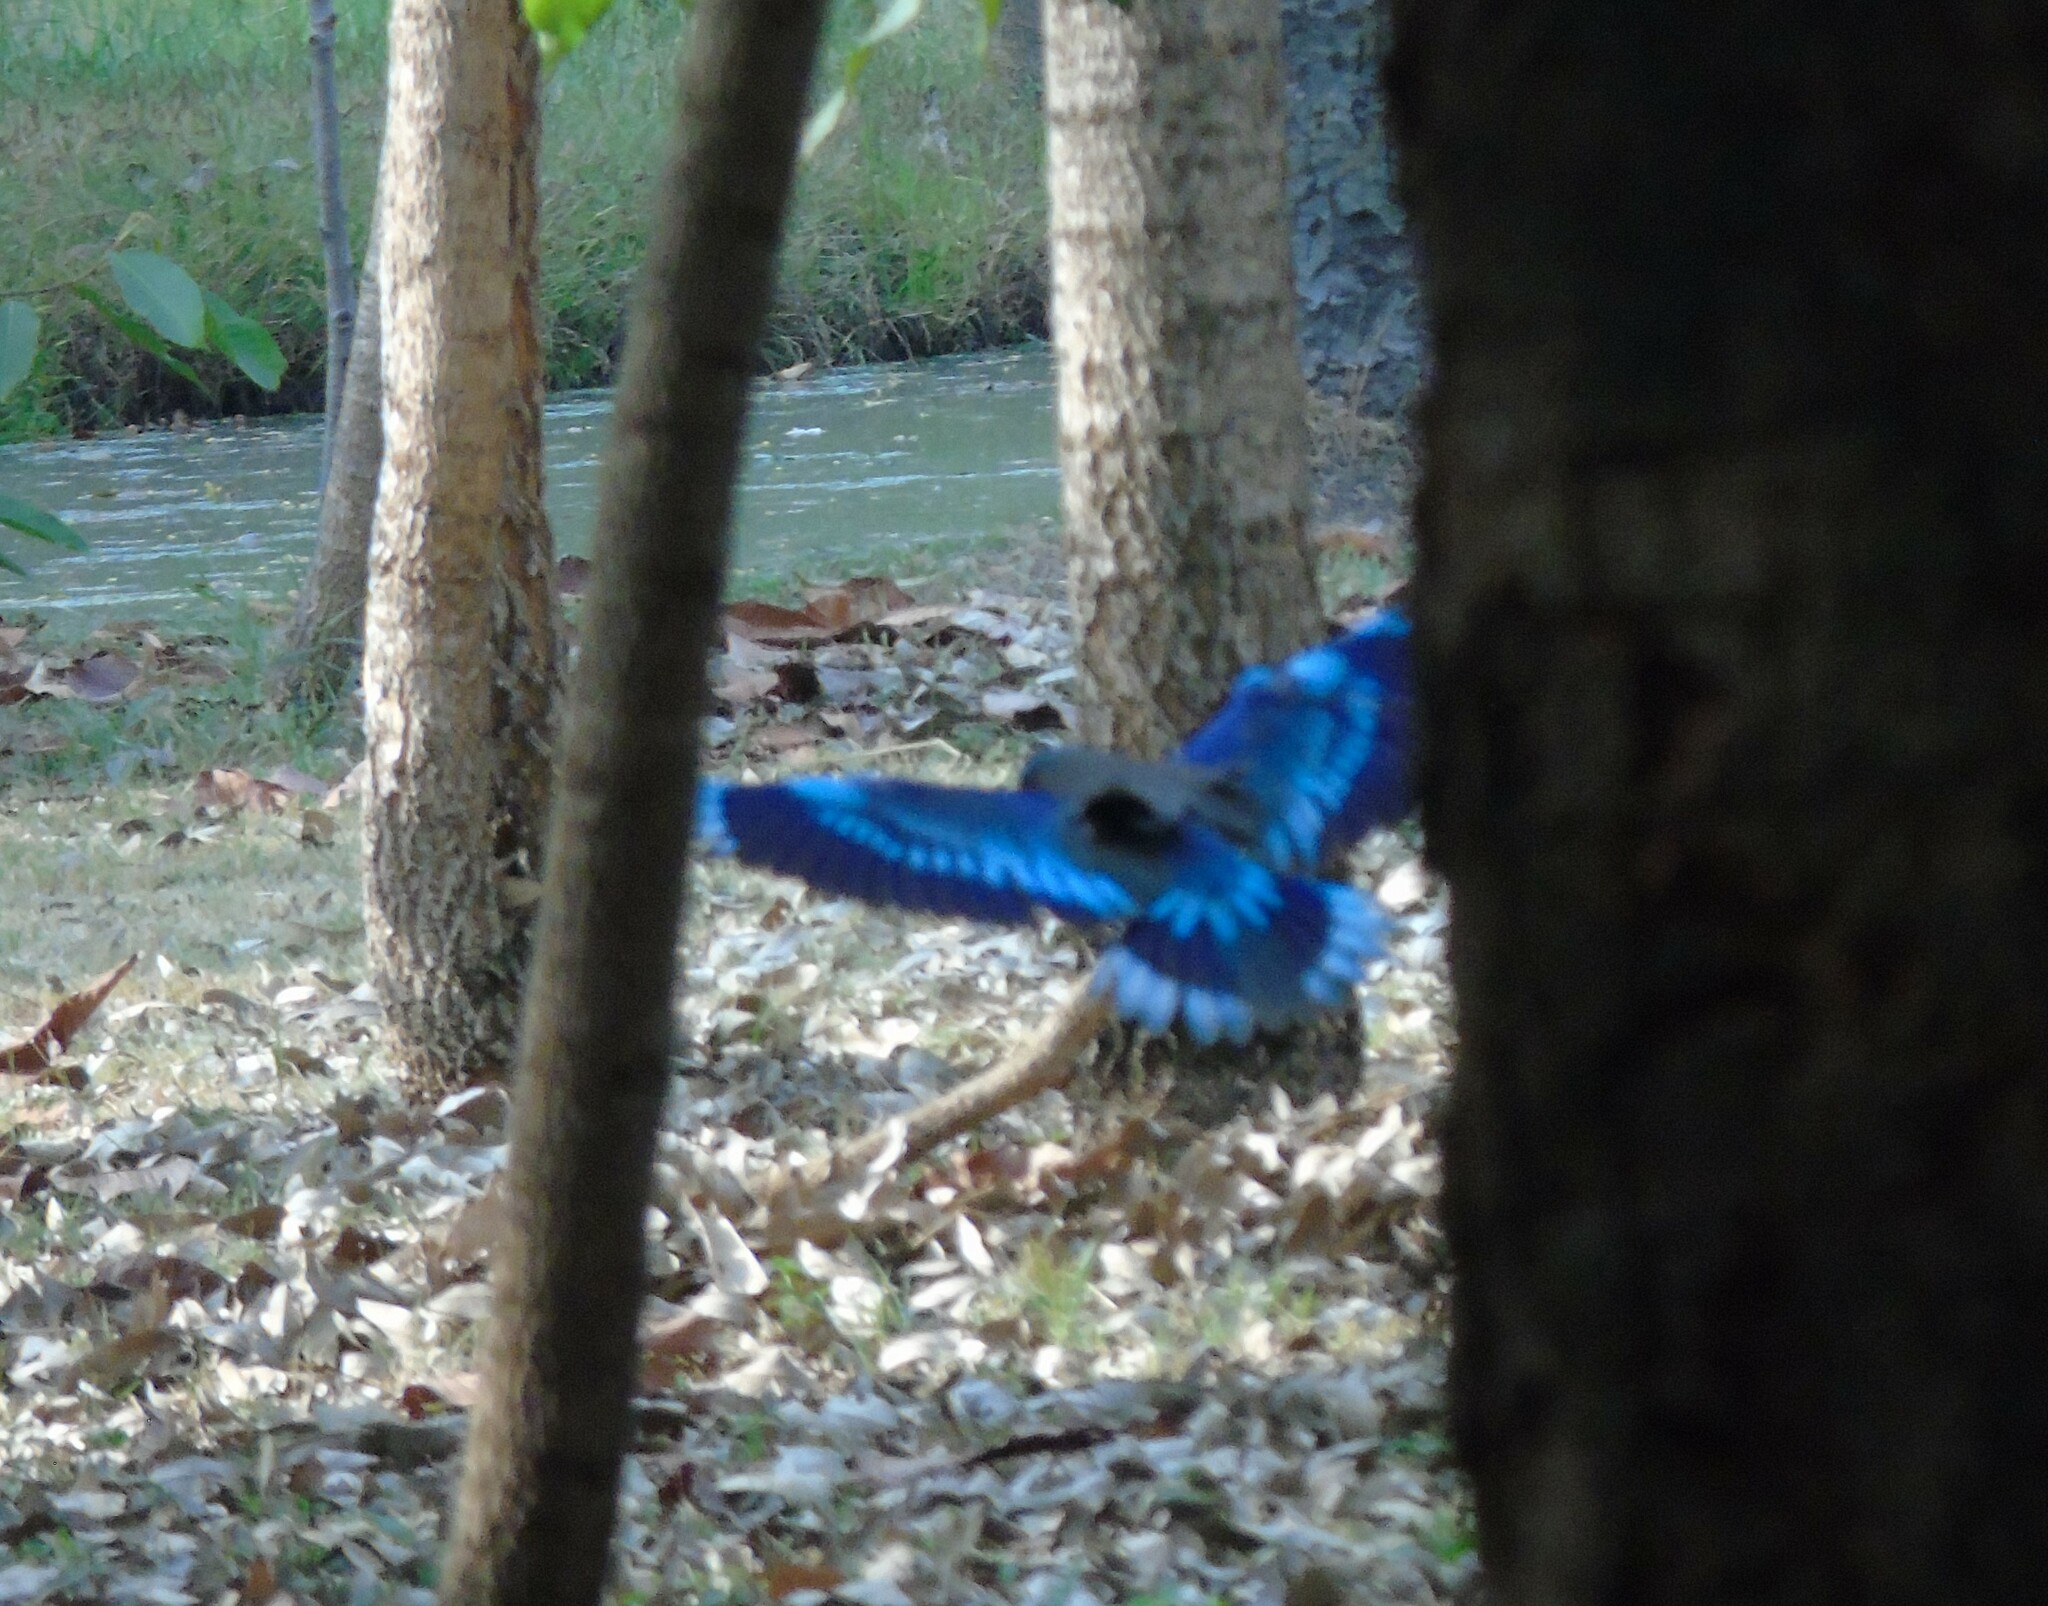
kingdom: Animalia
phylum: Chordata
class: Aves
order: Coraciiformes
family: Coraciidae
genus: Coracias
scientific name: Coracias affinis
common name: Indochinese roller
